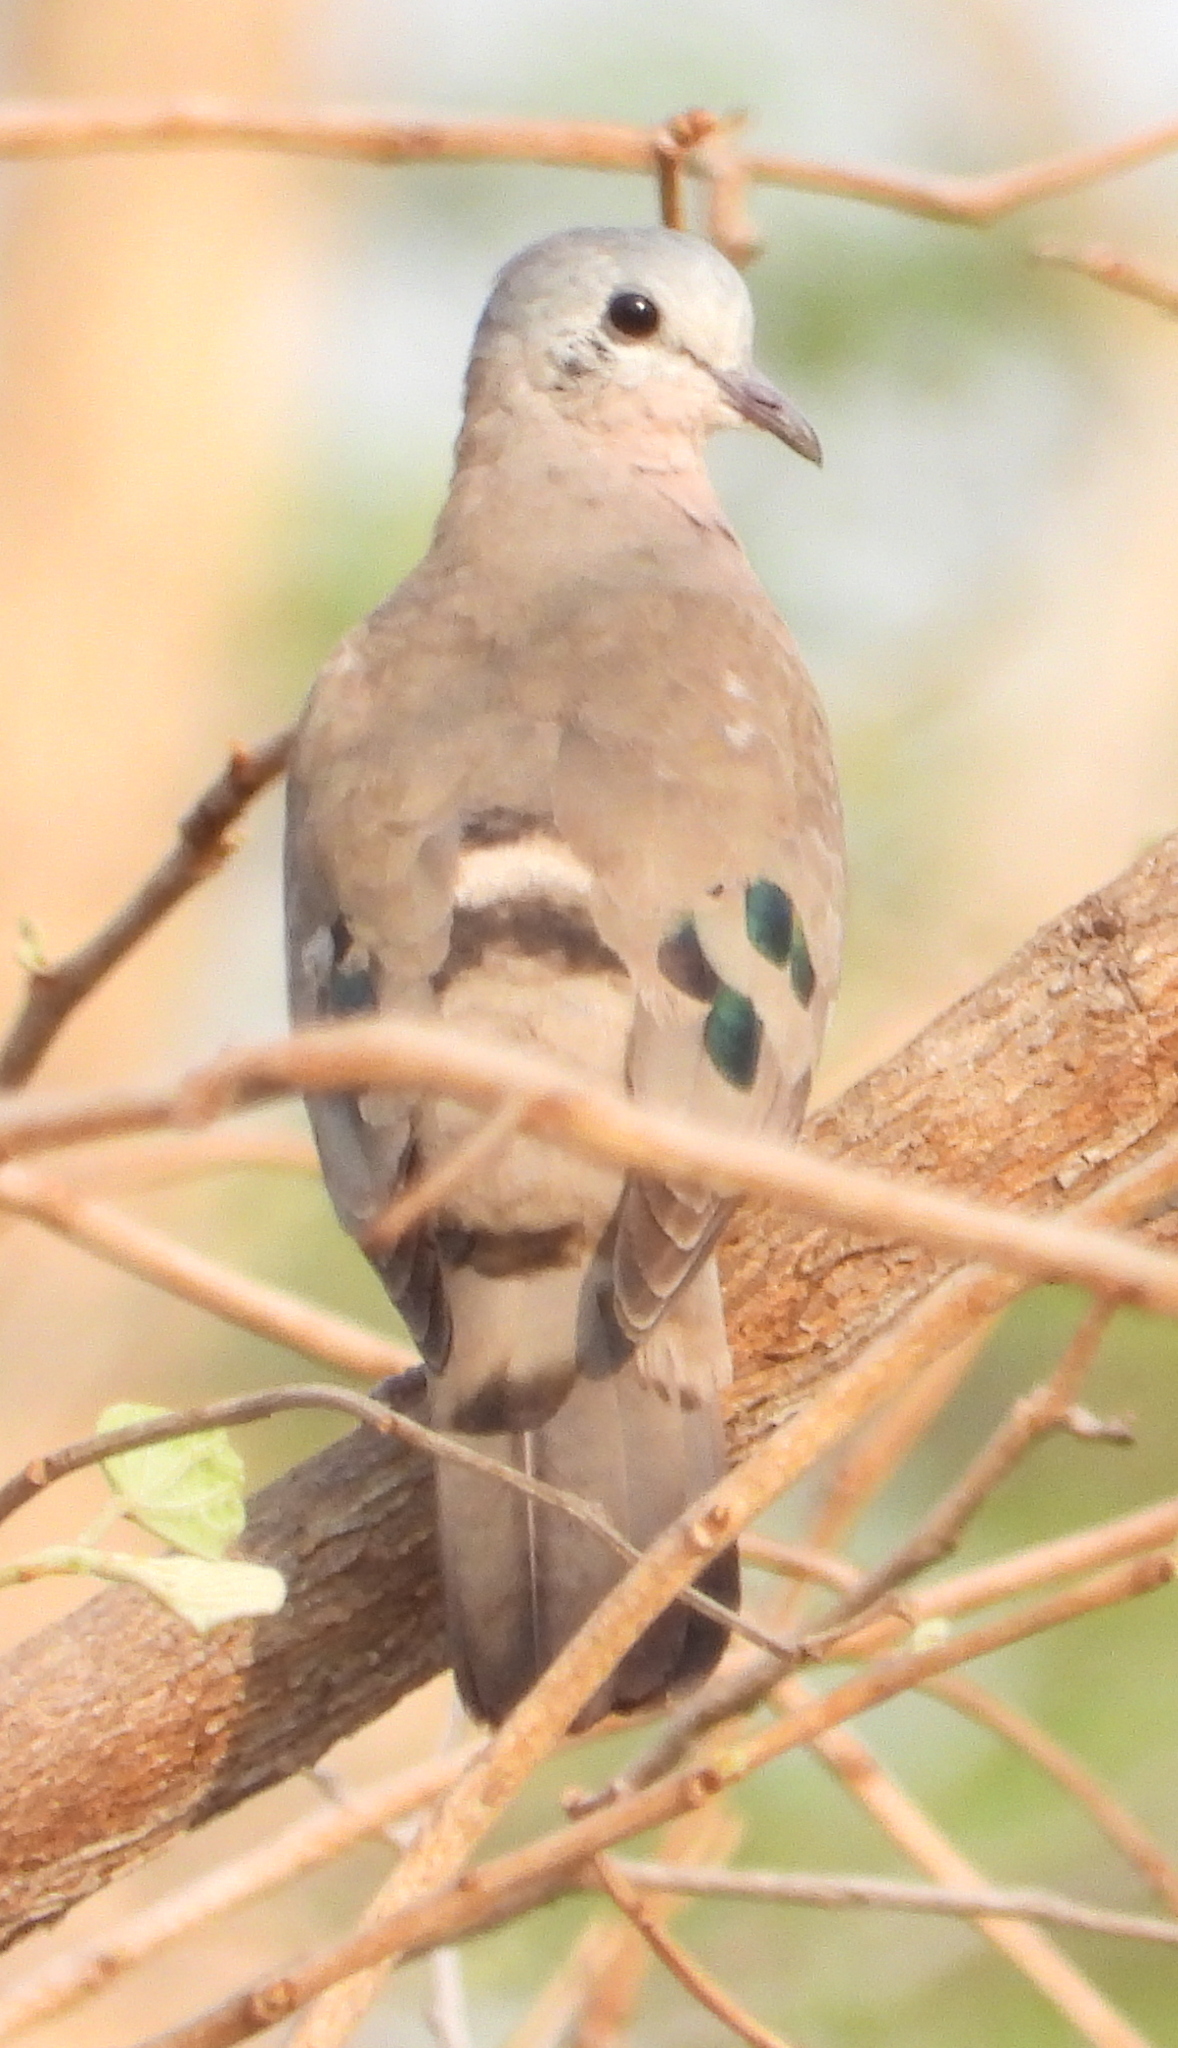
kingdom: Animalia
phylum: Chordata
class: Aves
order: Columbiformes
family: Columbidae
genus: Turtur
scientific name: Turtur chalcospilos
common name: Emerald-spotted wood dove
